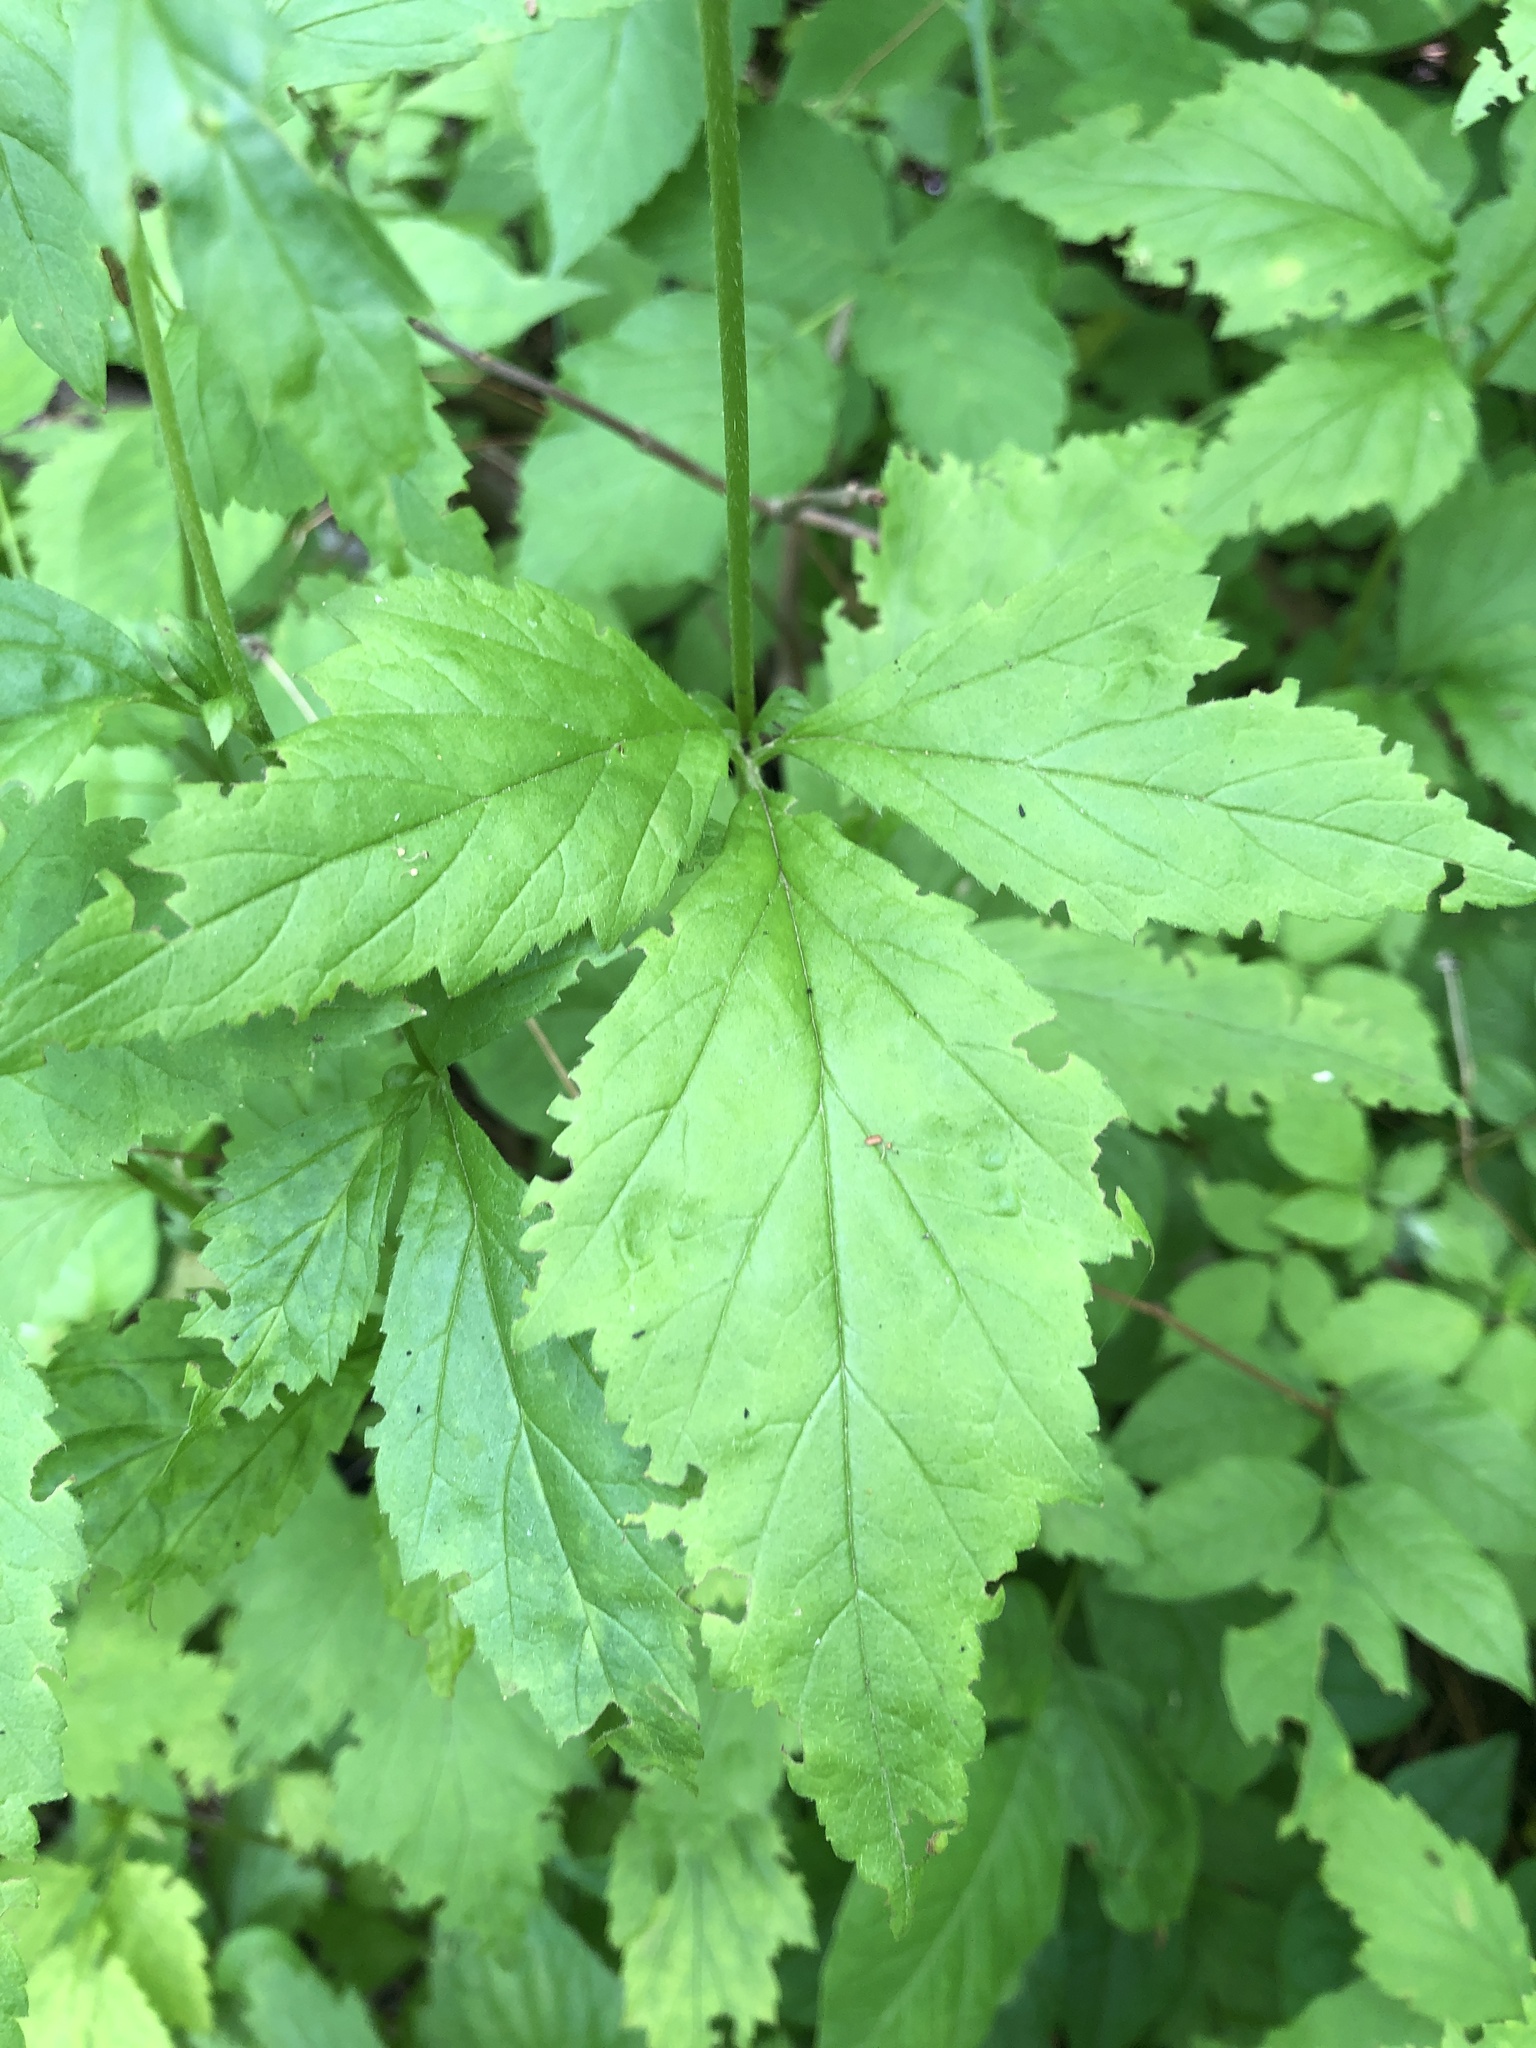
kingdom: Plantae
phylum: Tracheophyta
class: Magnoliopsida
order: Rosales
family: Rosaceae
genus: Geum
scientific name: Geum canadense
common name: White avens
